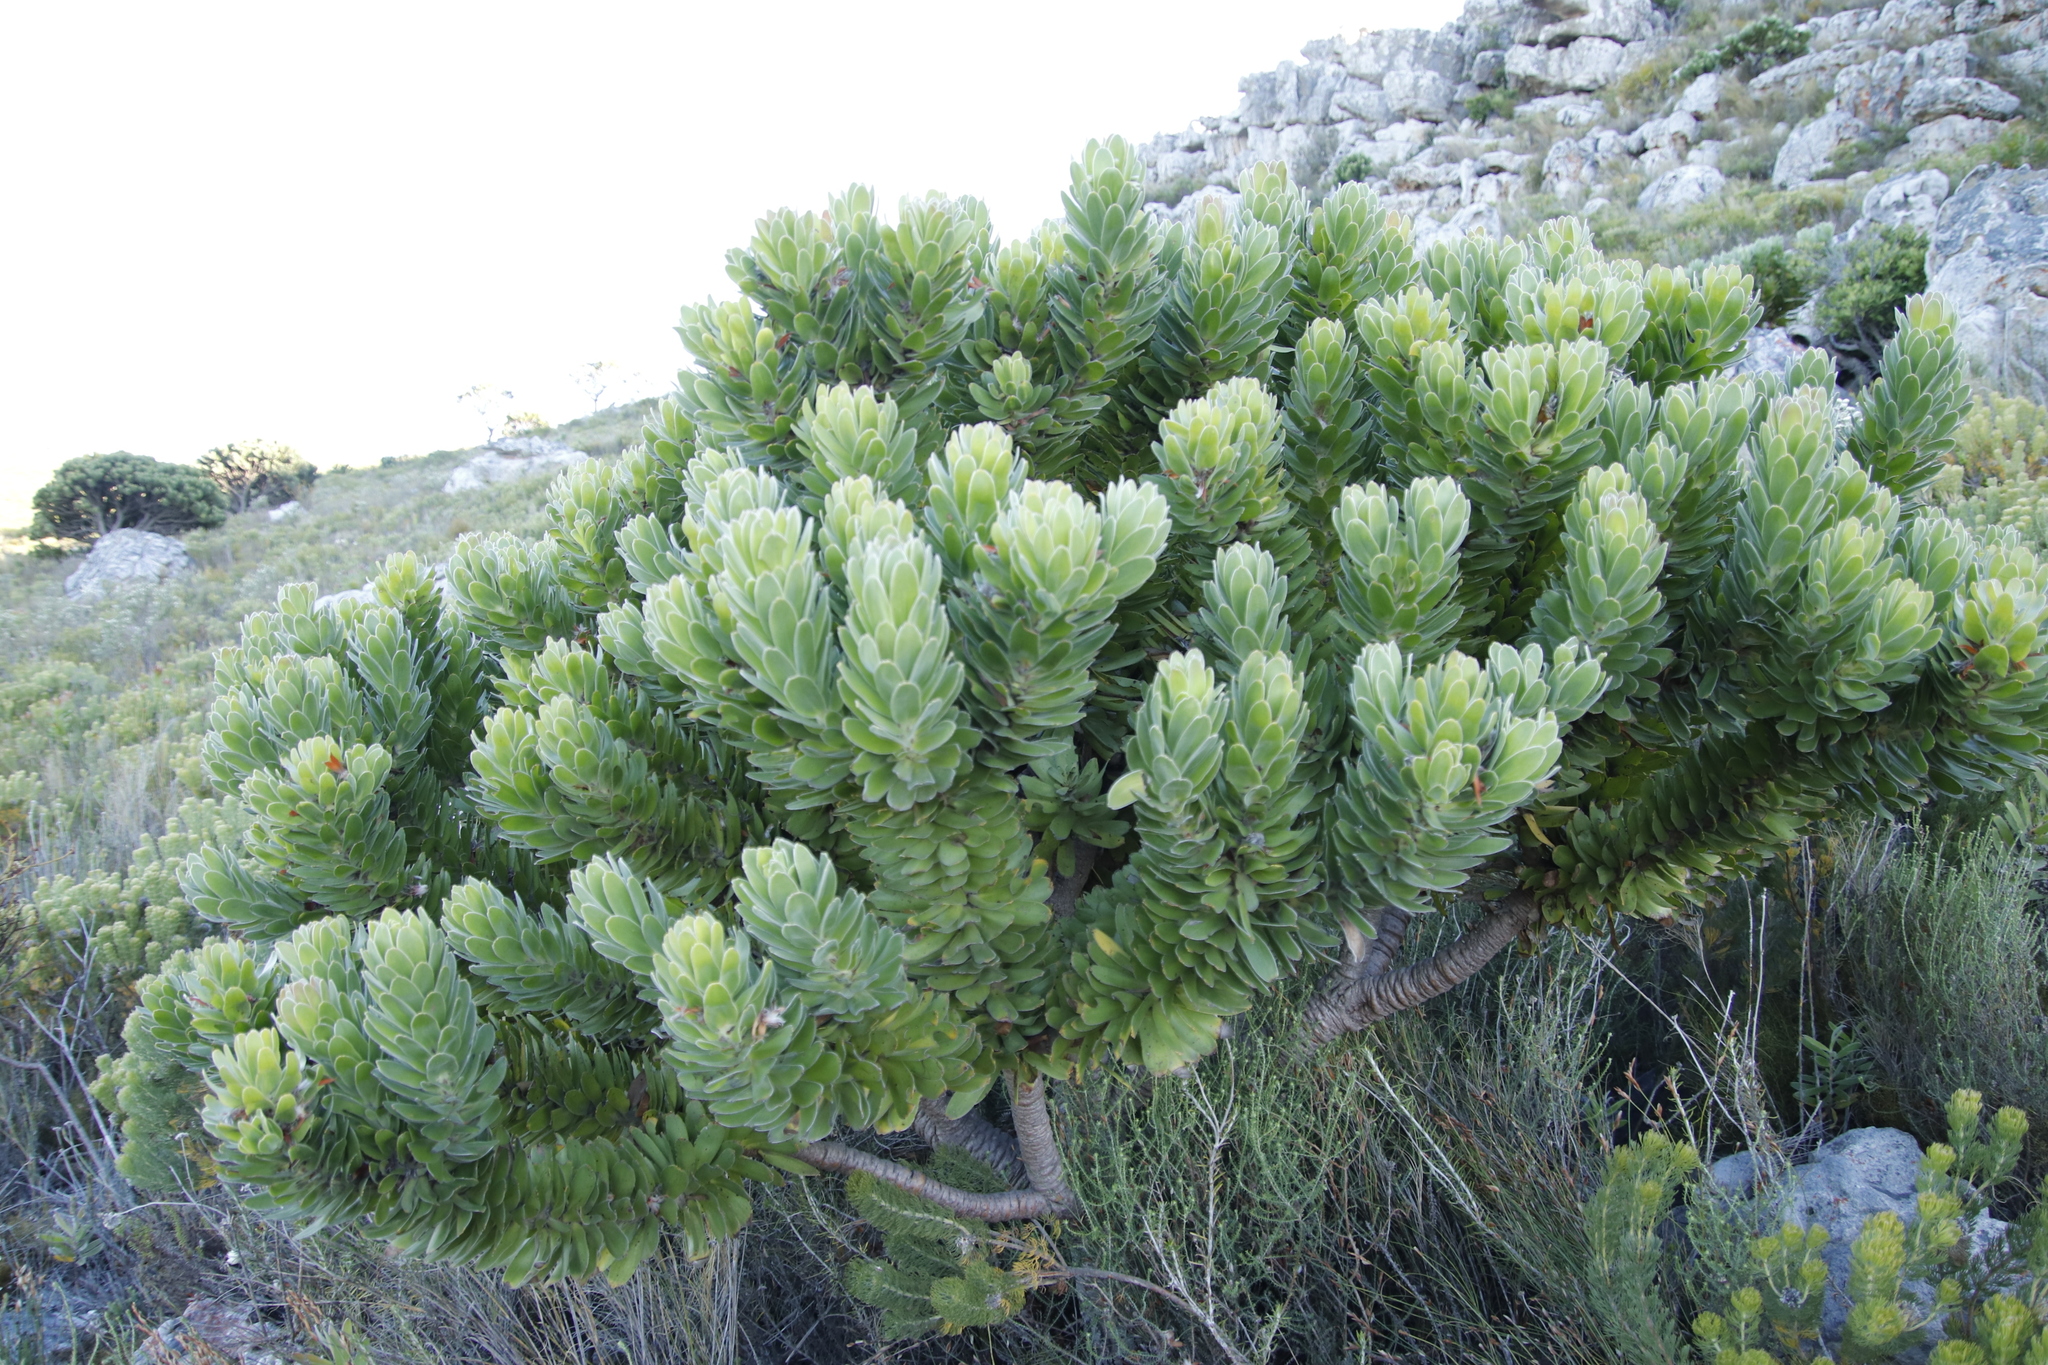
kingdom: Plantae
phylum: Tracheophyta
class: Magnoliopsida
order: Proteales
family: Proteaceae
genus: Mimetes
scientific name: Mimetes fimbriifolius
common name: Fringed bottlebrush
